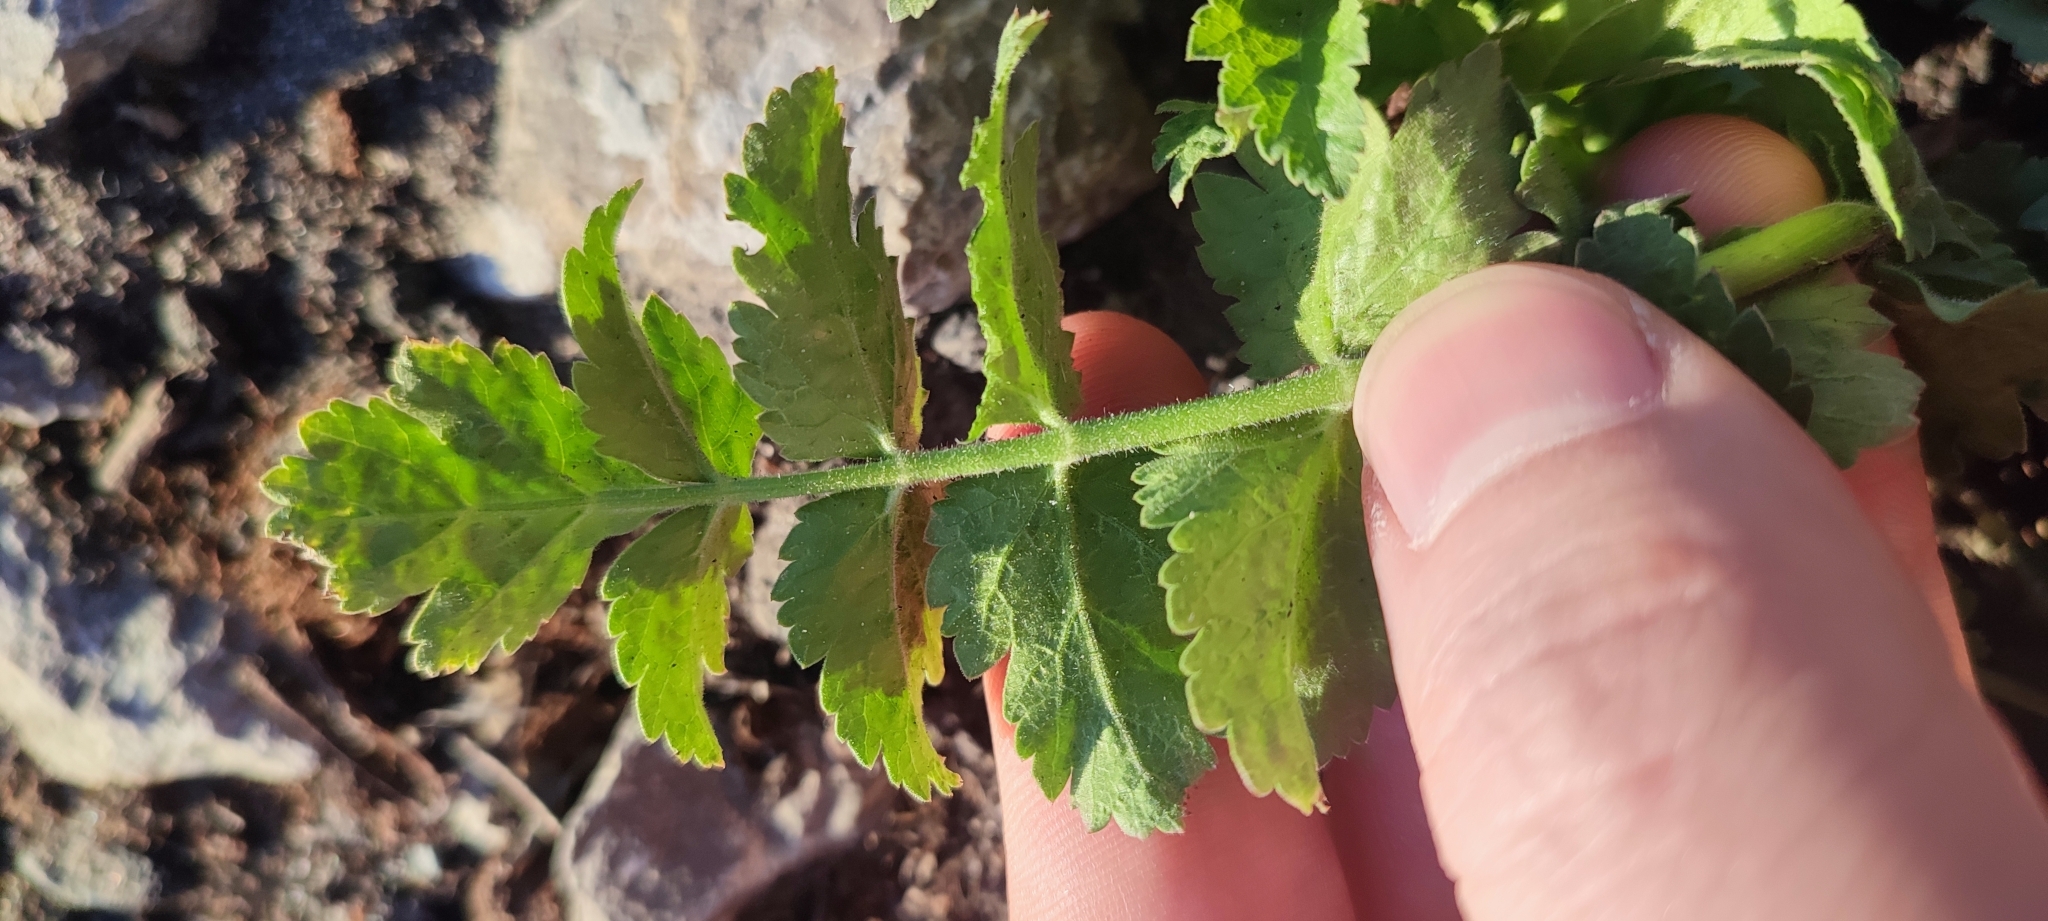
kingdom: Plantae
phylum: Tracheophyta
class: Magnoliopsida
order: Apiales
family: Apiaceae
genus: Pastinaca
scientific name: Pastinaca sativa
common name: Wild parsnip
